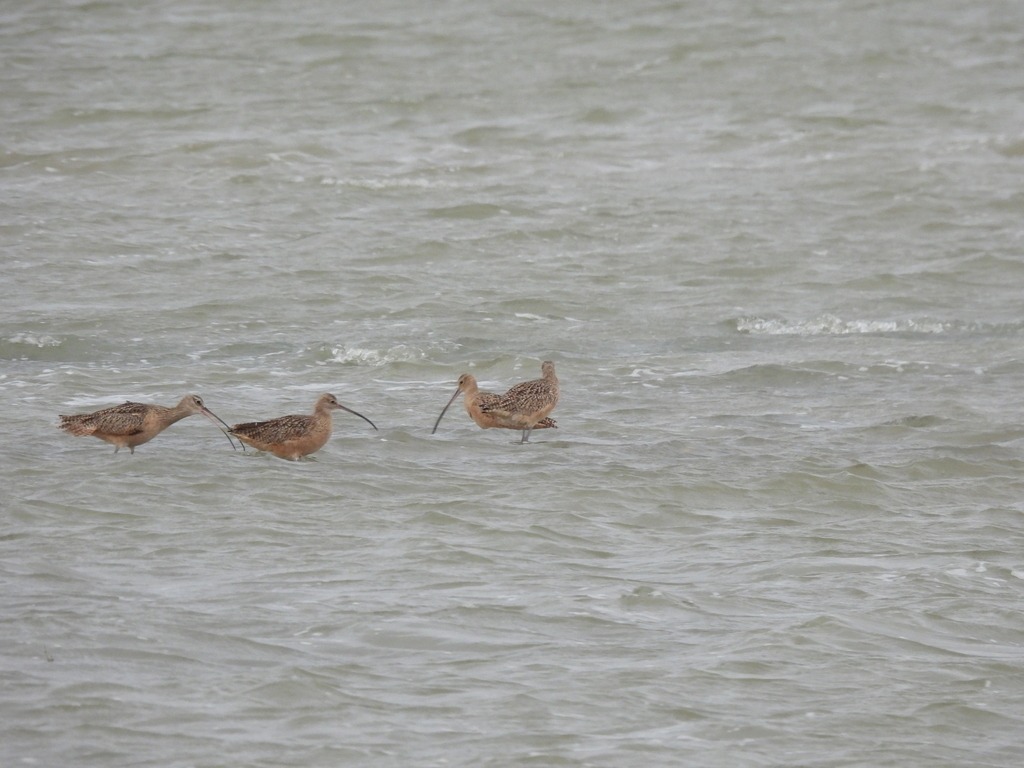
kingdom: Animalia
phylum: Chordata
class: Aves
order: Charadriiformes
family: Scolopacidae
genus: Numenius
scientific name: Numenius americanus
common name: Long-billed curlew
